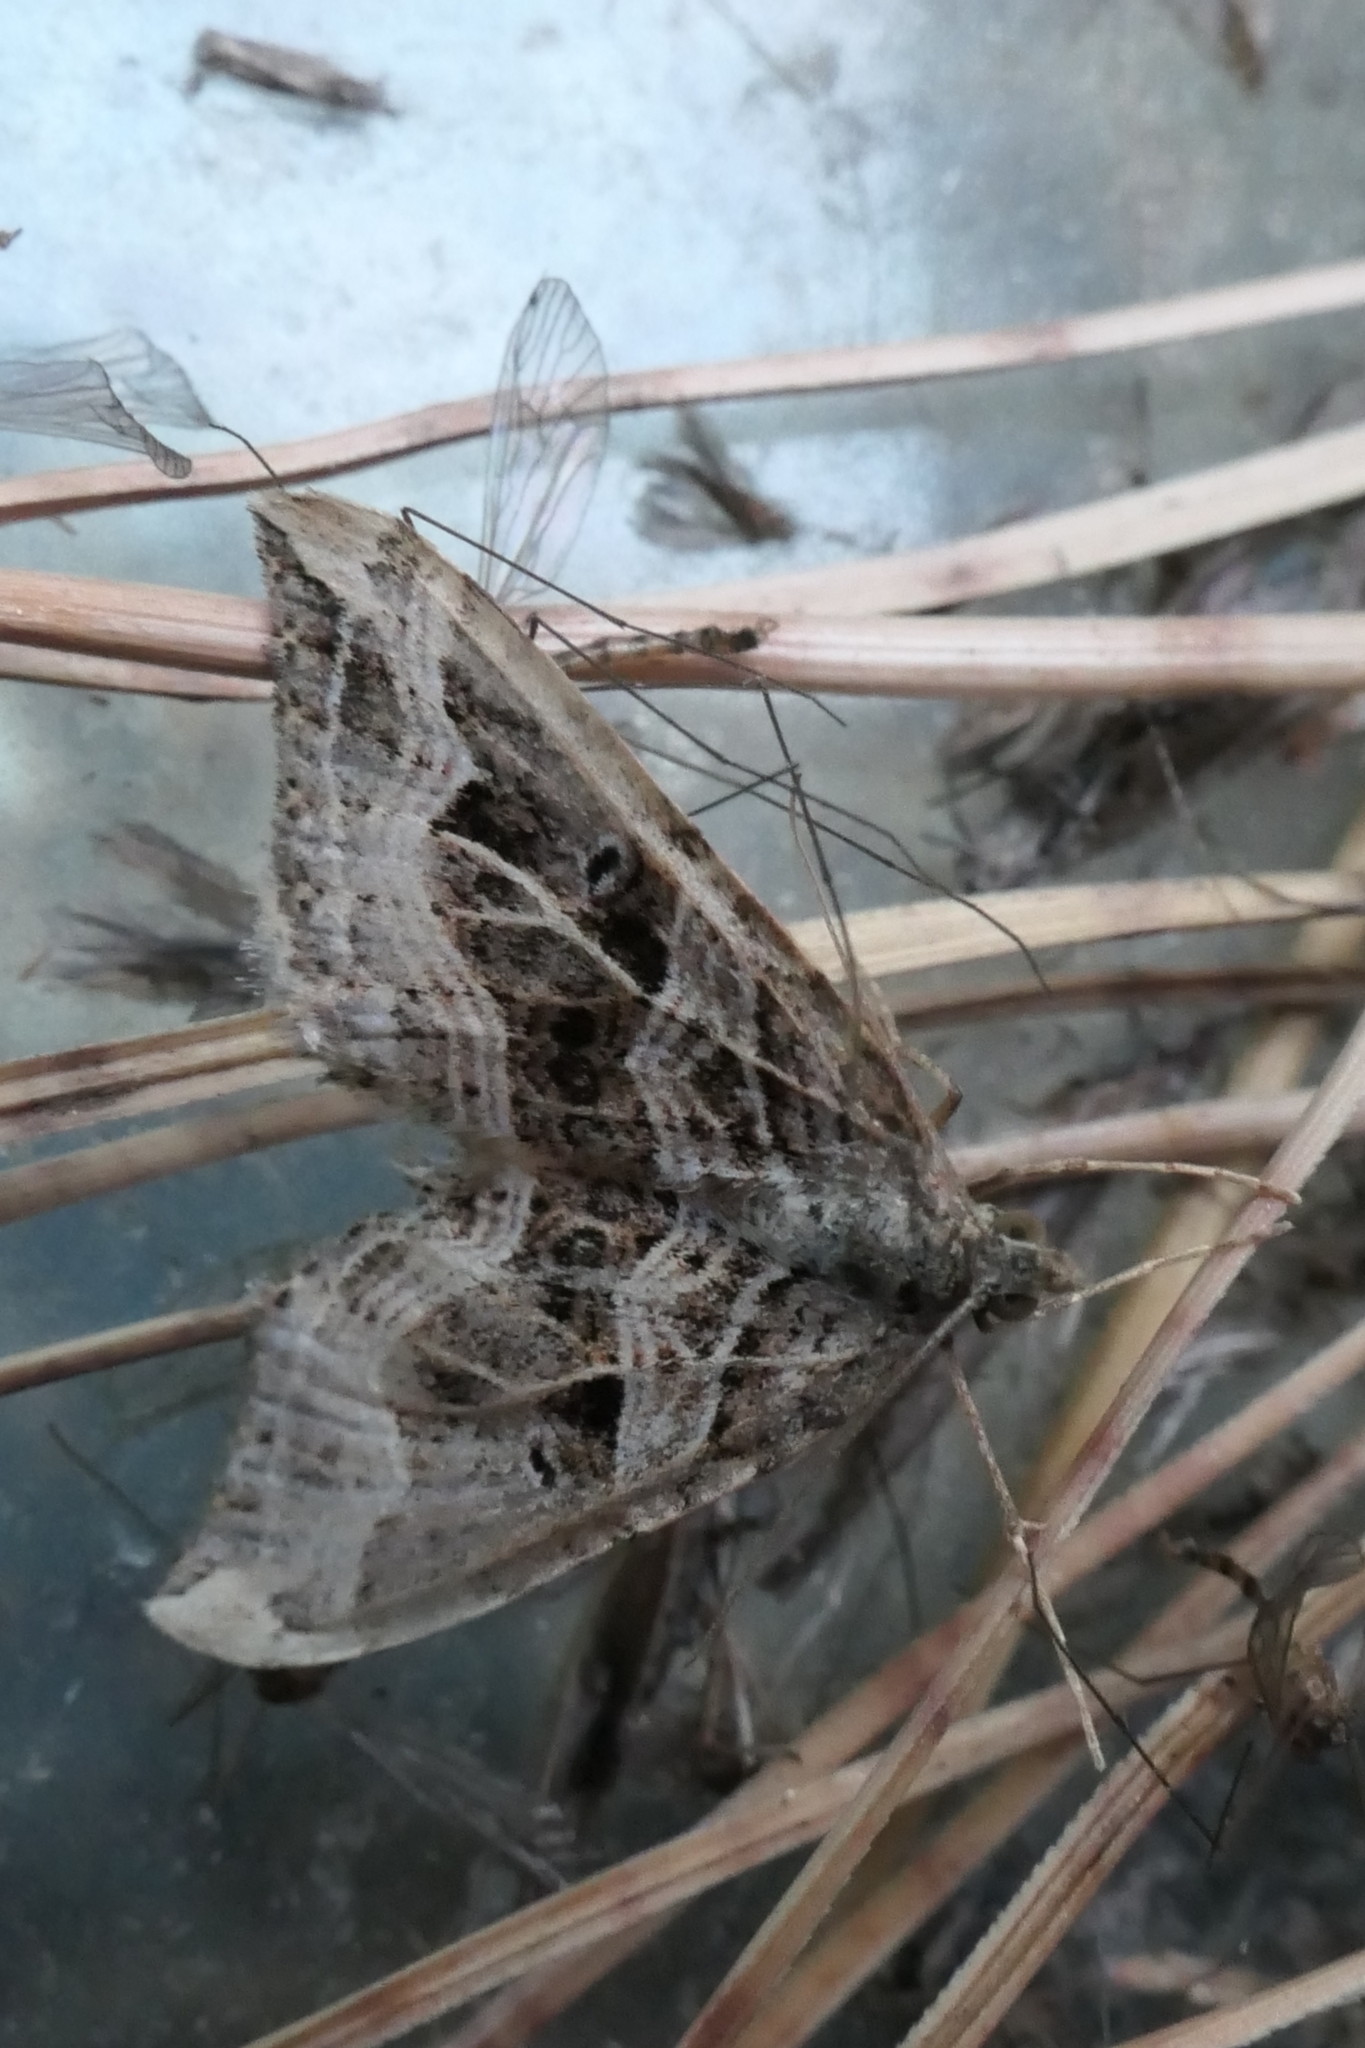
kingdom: Animalia
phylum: Arthropoda
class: Insecta
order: Lepidoptera
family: Geometridae
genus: Xanthorhoe
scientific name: Xanthorhoe semifissata
